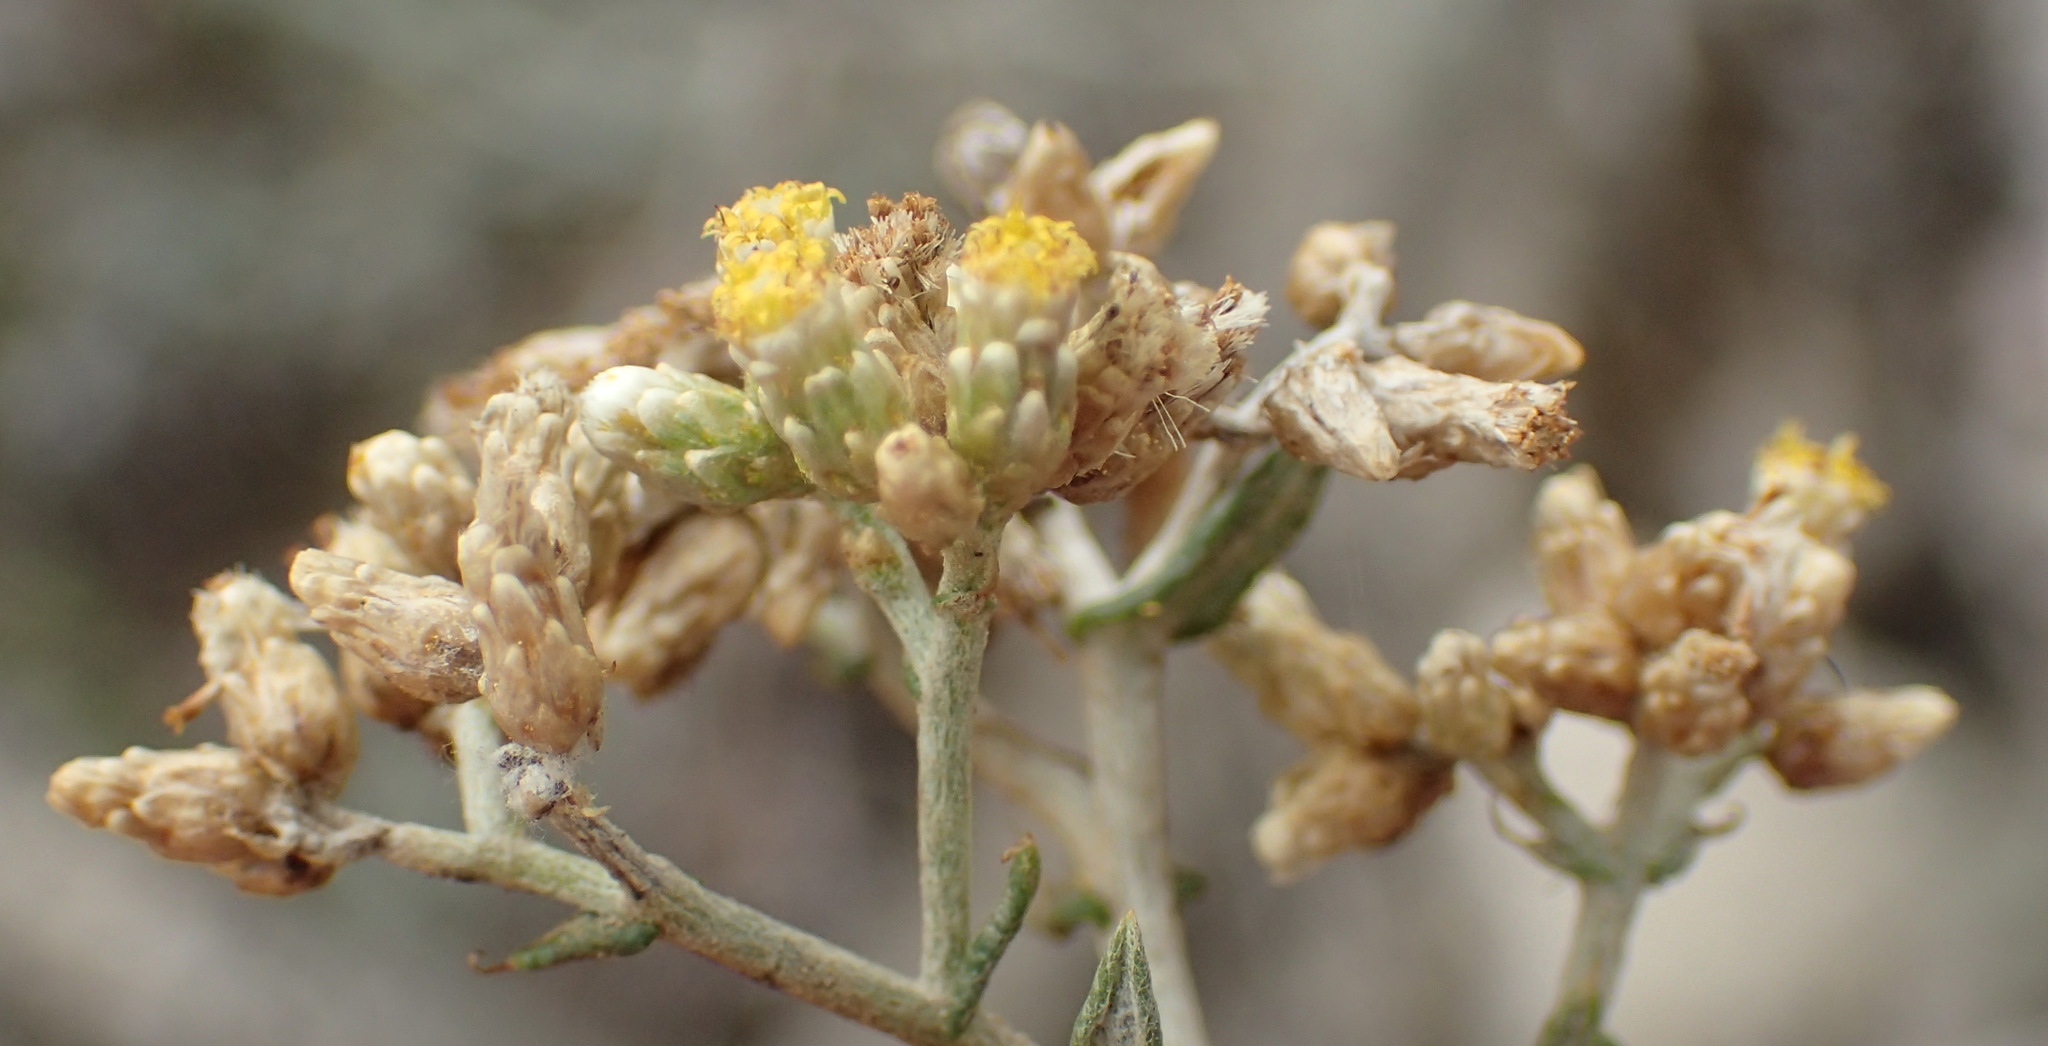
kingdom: Plantae
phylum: Tracheophyta
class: Magnoliopsida
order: Asterales
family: Asteraceae
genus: Helichrysum
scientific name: Helichrysum rosum
